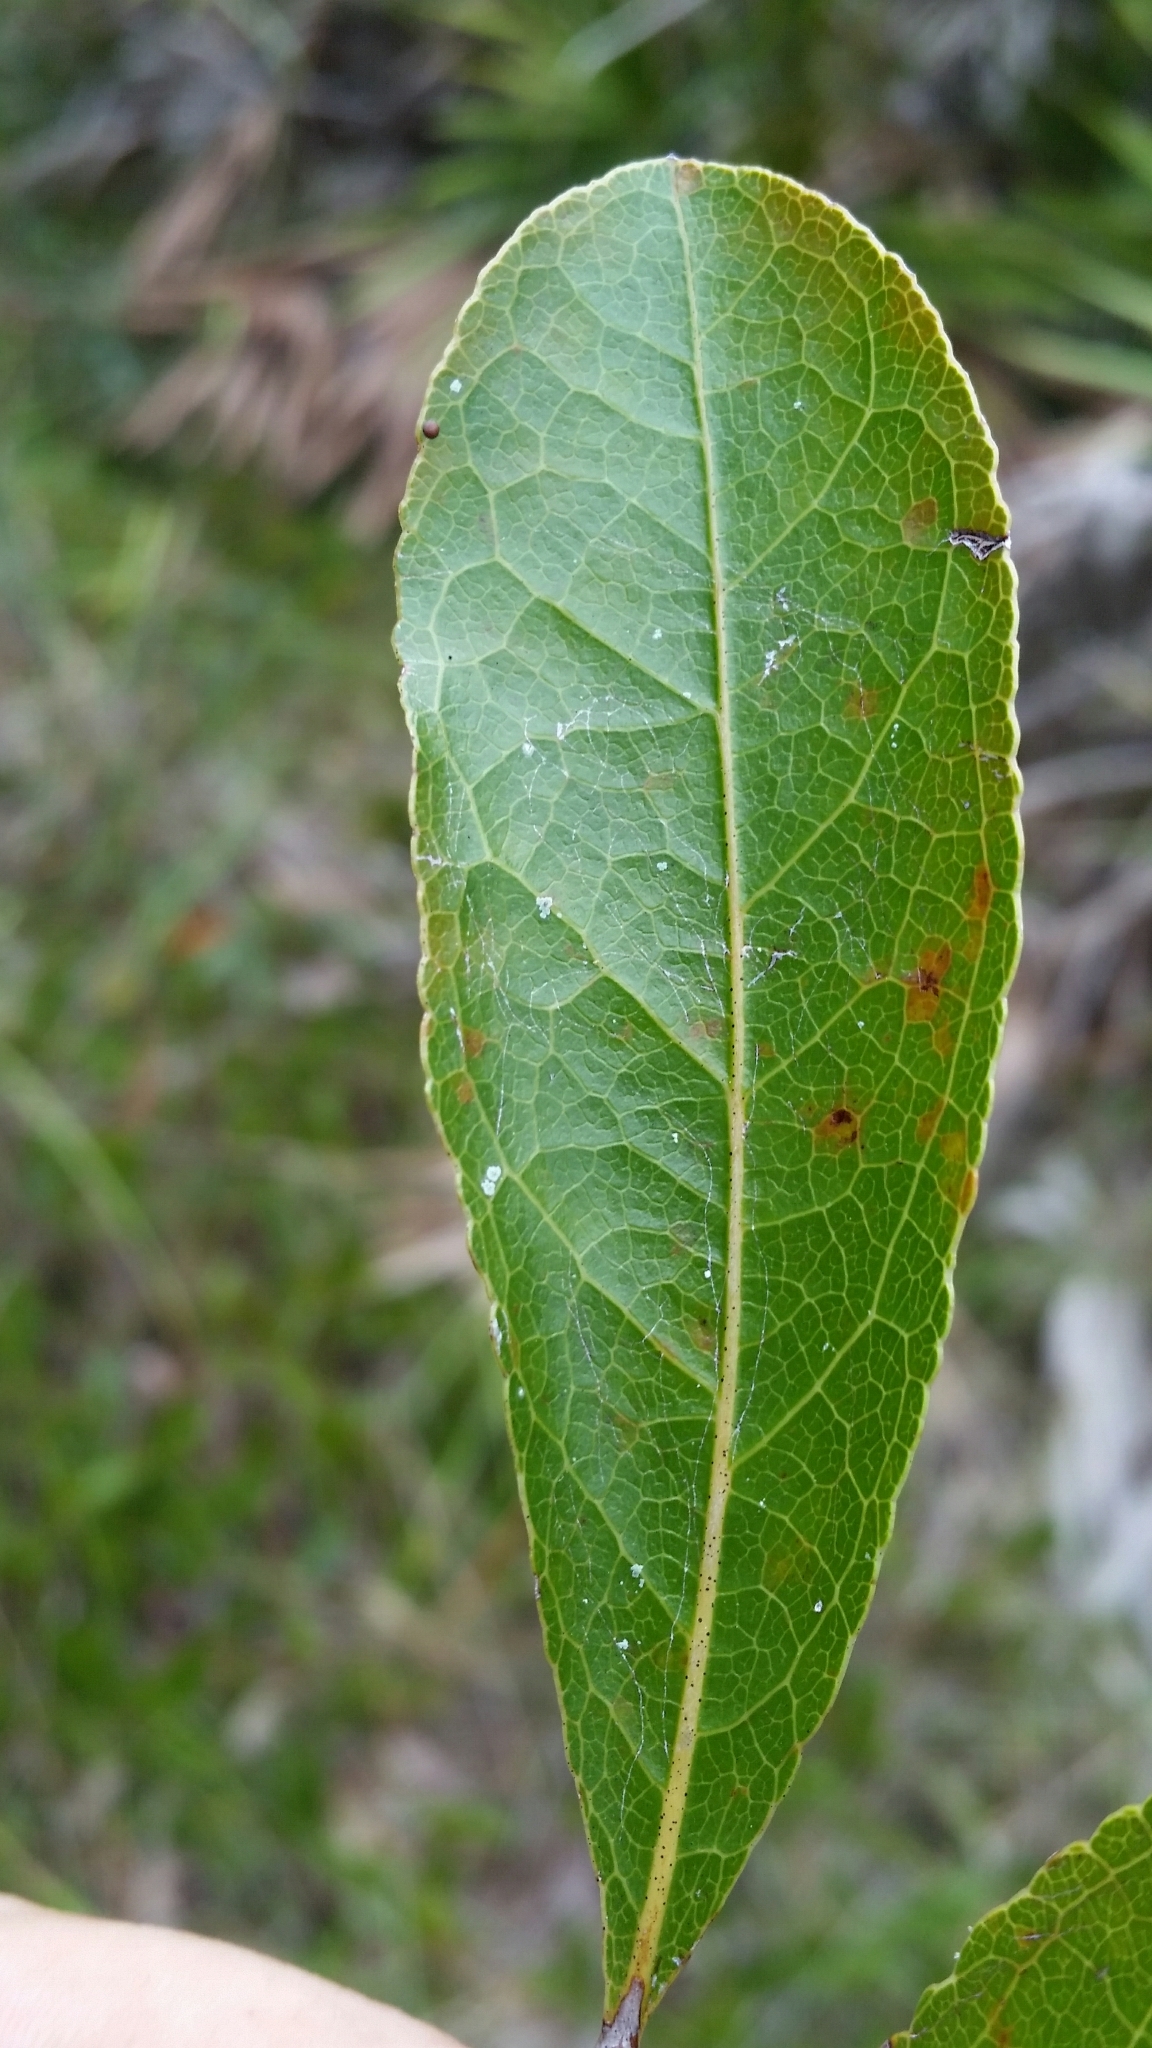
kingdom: Plantae
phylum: Tracheophyta
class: Magnoliopsida
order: Malpighiales
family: Chrysobalanaceae
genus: Geobalanus
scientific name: Geobalanus oblongifolius
